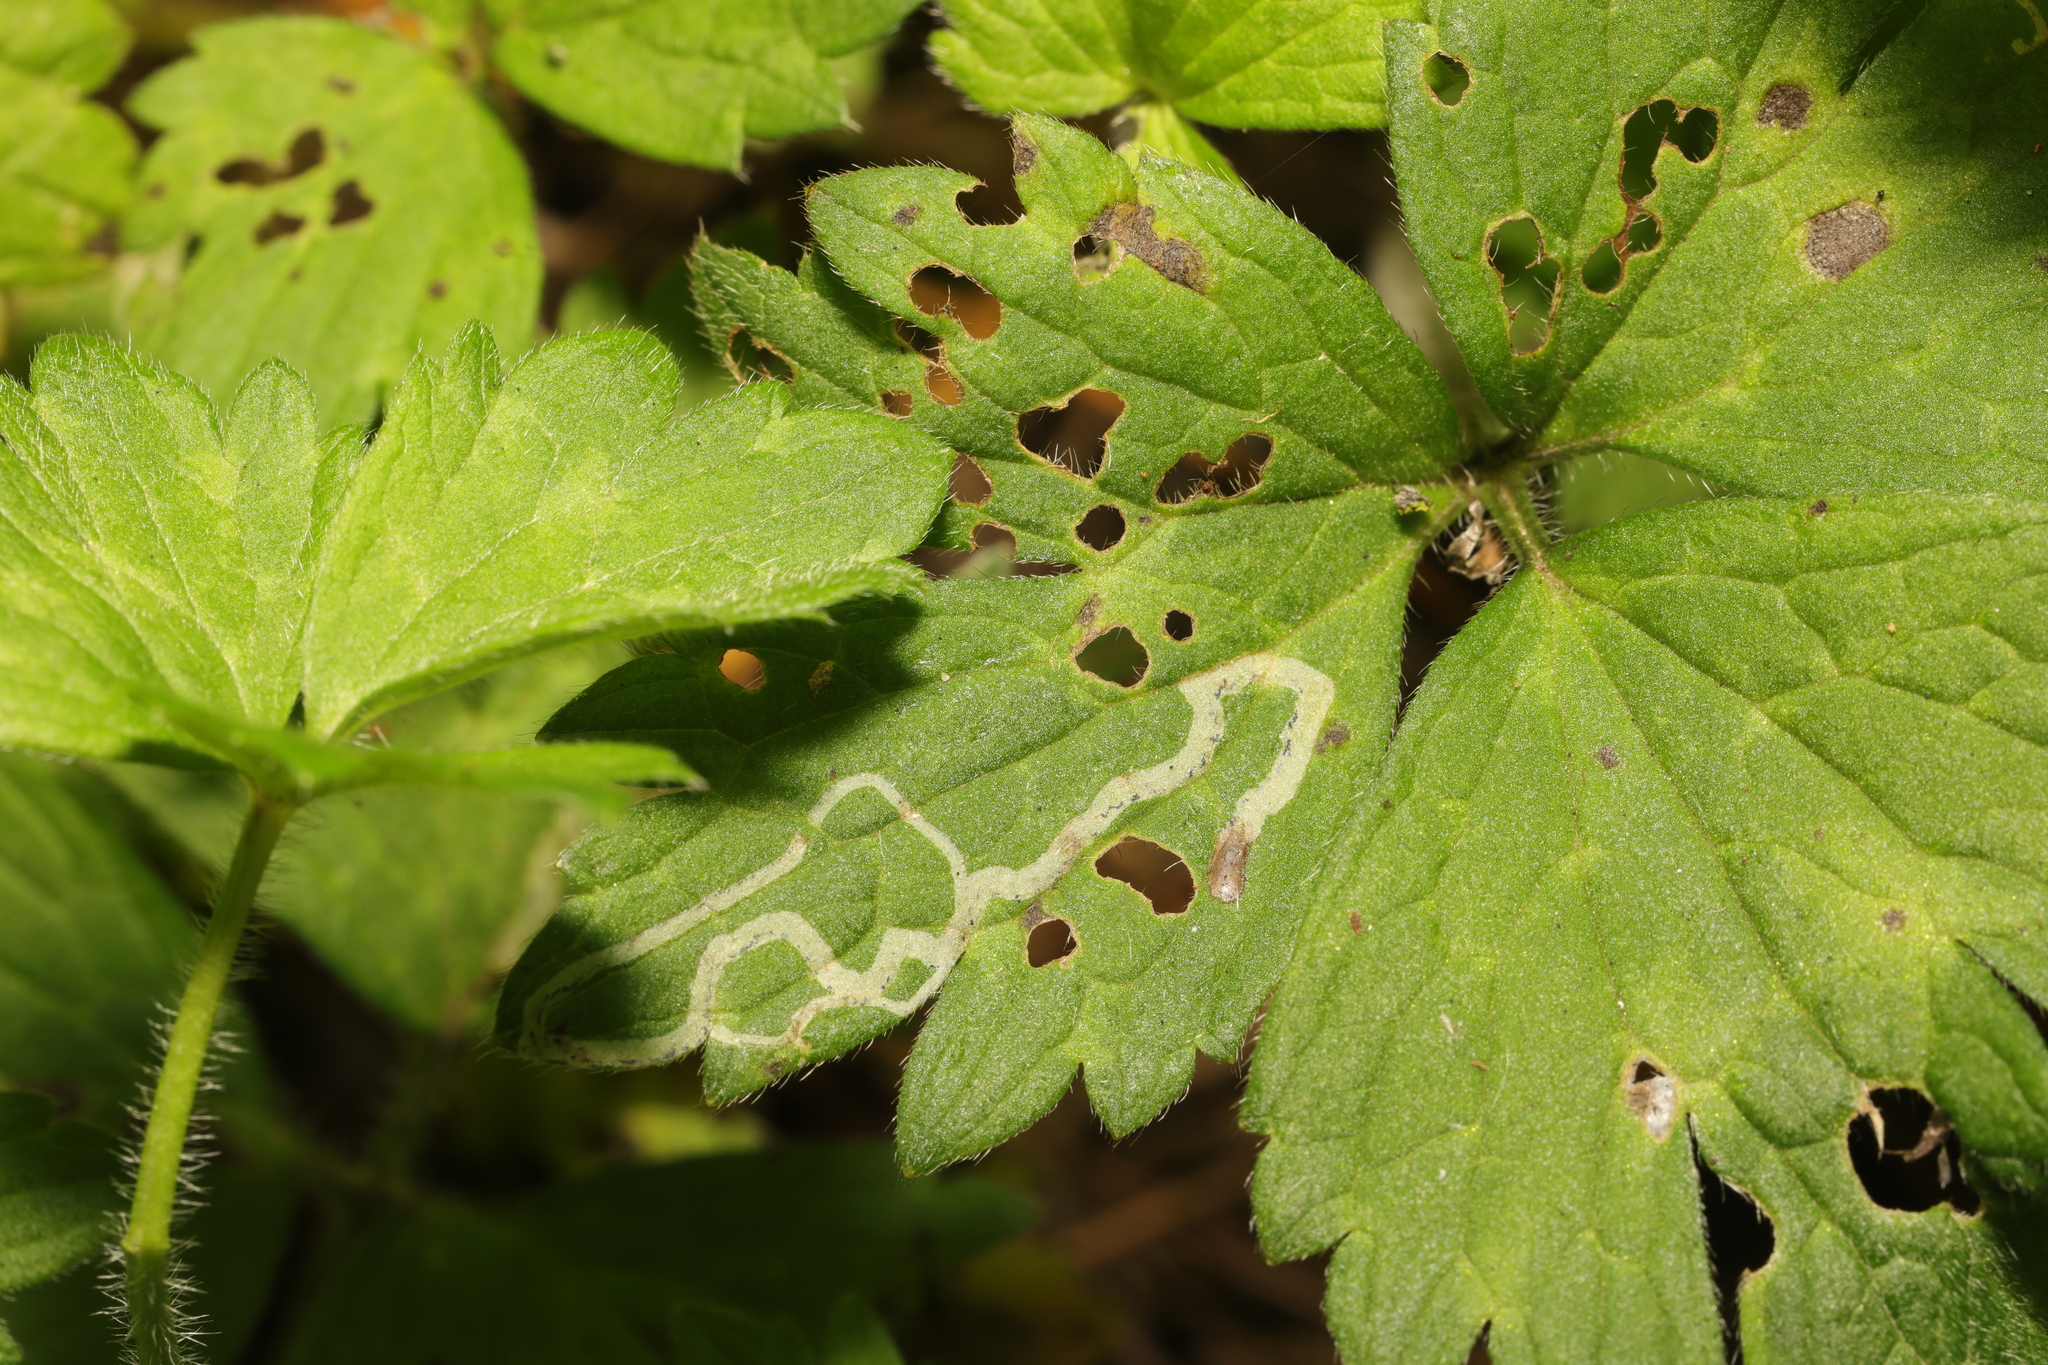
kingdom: Animalia
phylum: Arthropoda
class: Insecta
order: Diptera
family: Agromyzidae
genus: Phytomyza
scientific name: Phytomyza ranunculi
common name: Leaf-miner fly
